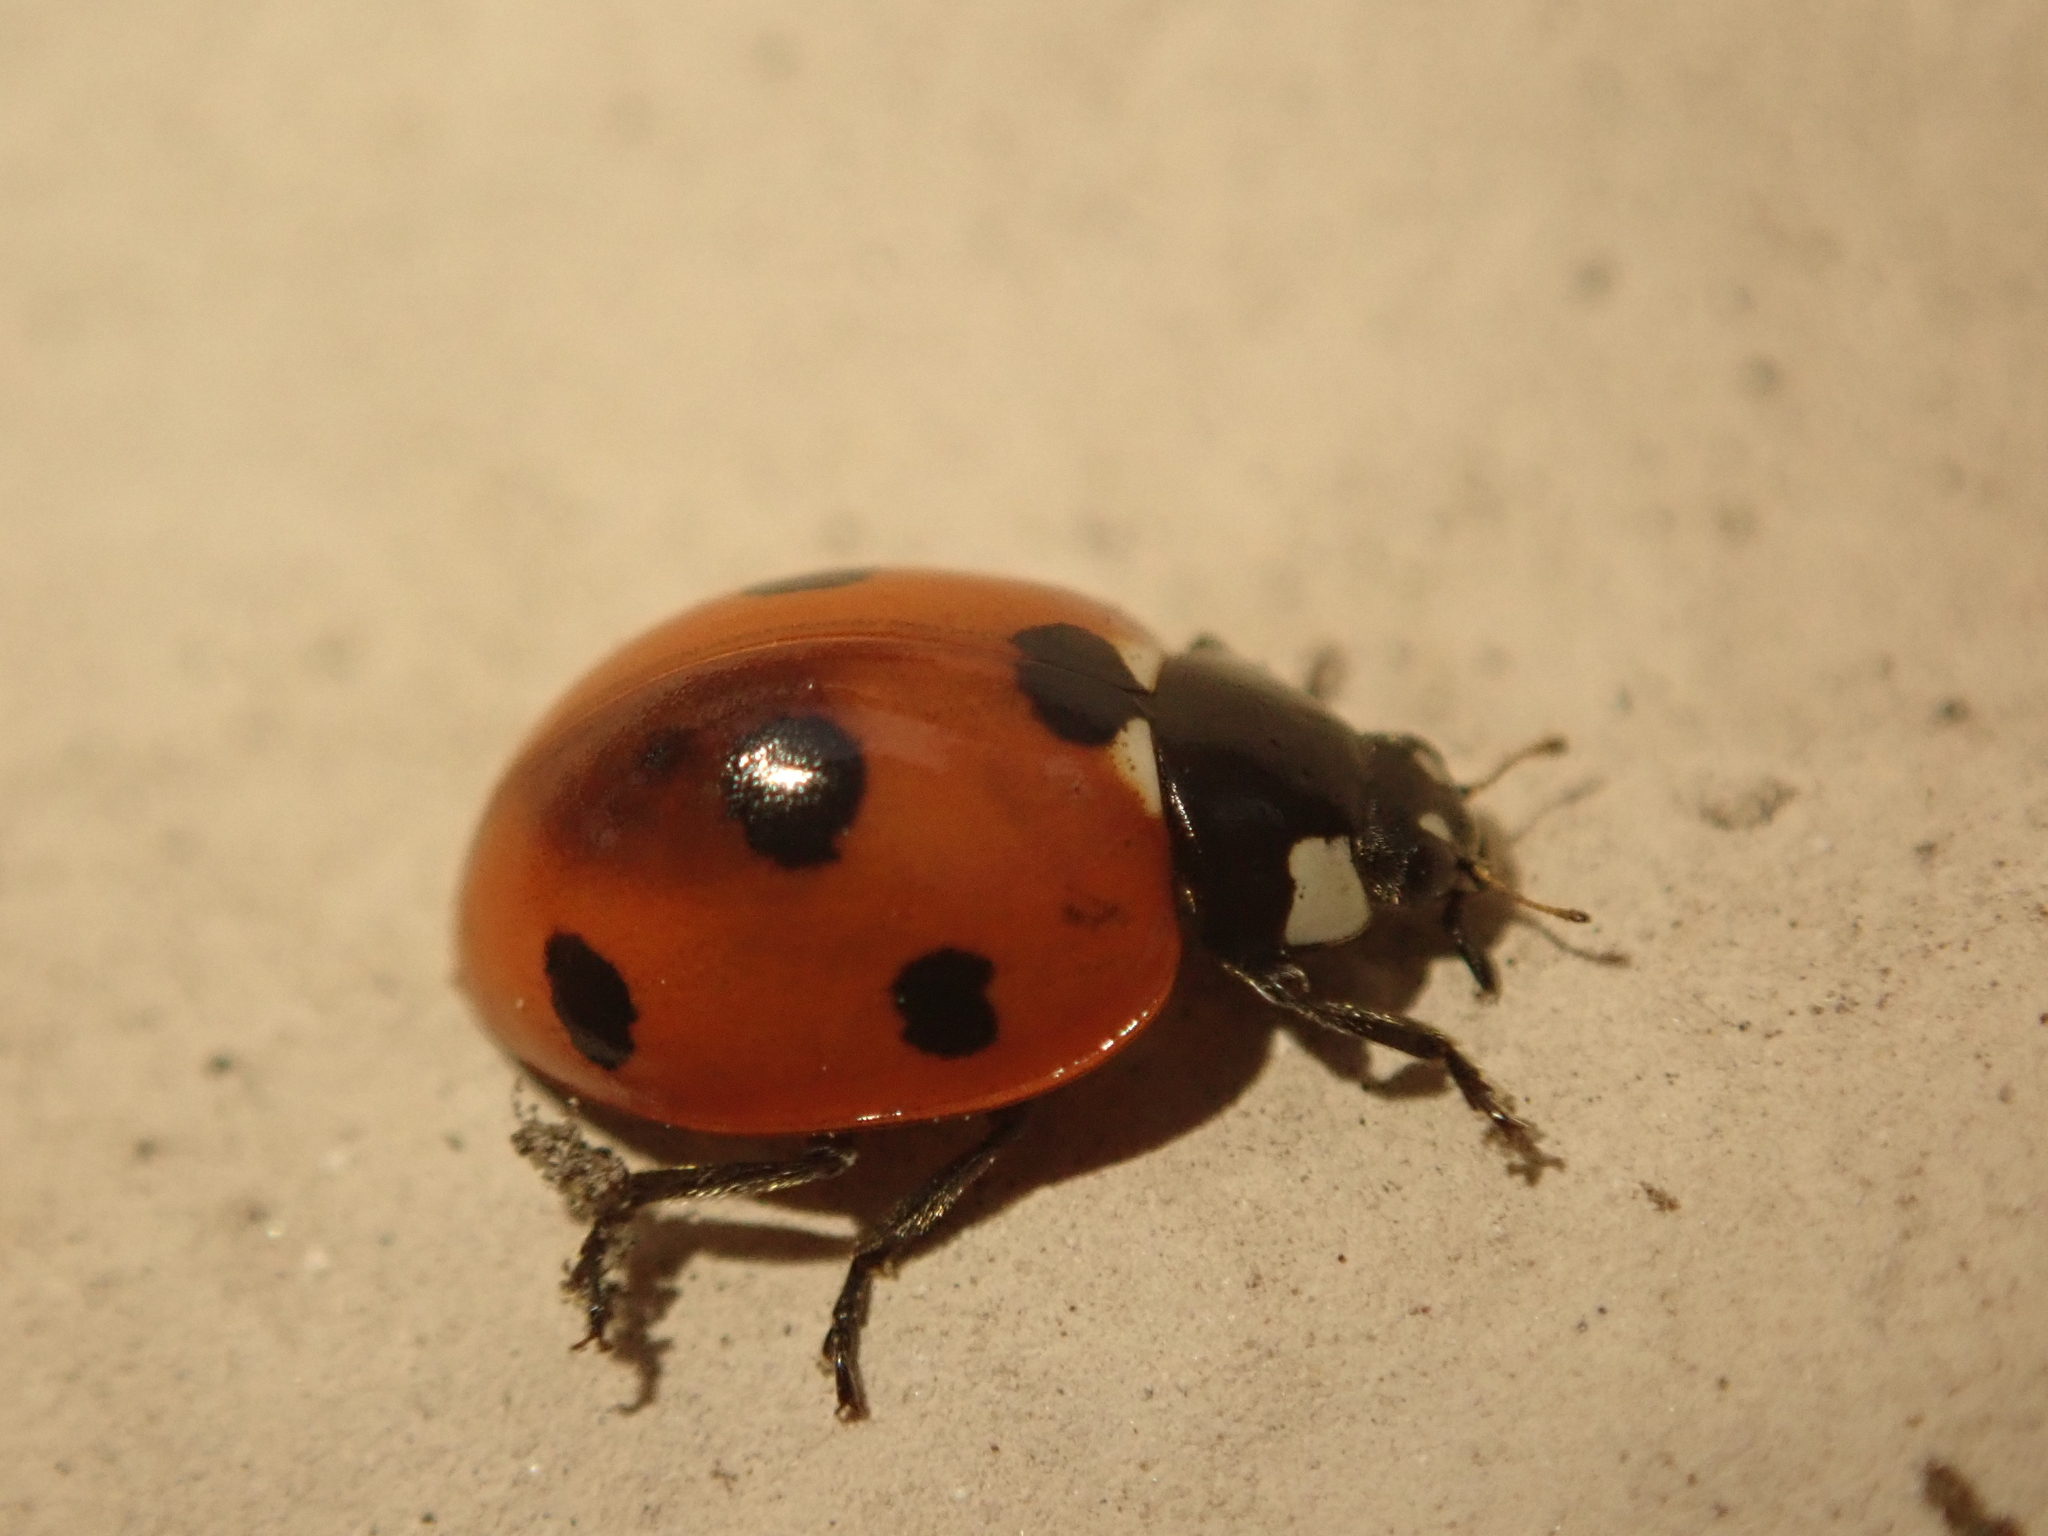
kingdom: Animalia
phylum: Arthropoda
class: Insecta
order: Coleoptera
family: Coccinellidae
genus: Coccinella
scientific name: Coccinella septempunctata
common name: Sevenspotted lady beetle
